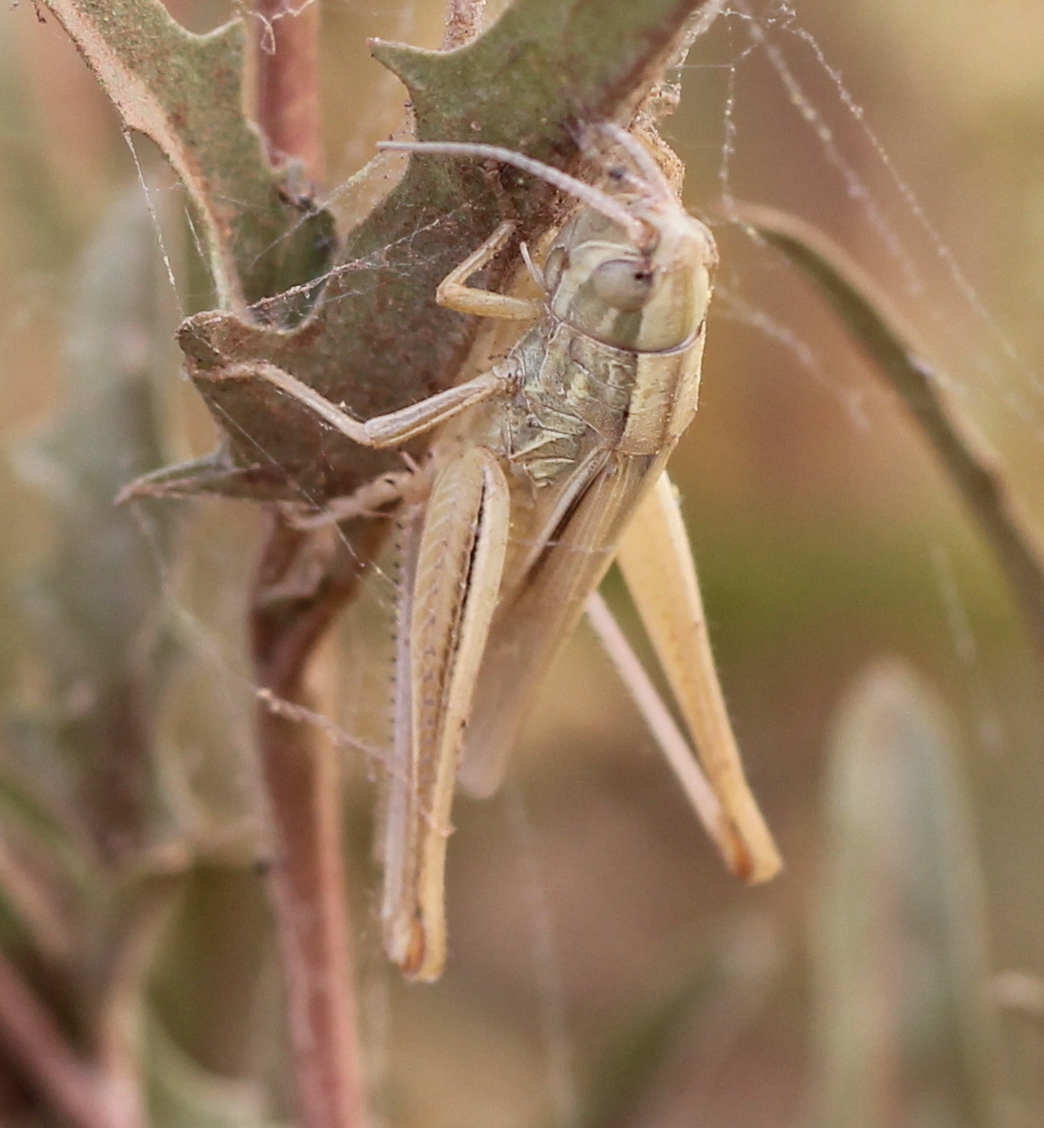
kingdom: Animalia
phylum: Arthropoda
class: Insecta
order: Orthoptera
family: Acrididae
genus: Euchorthippus
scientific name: Euchorthippus pulvinatus
